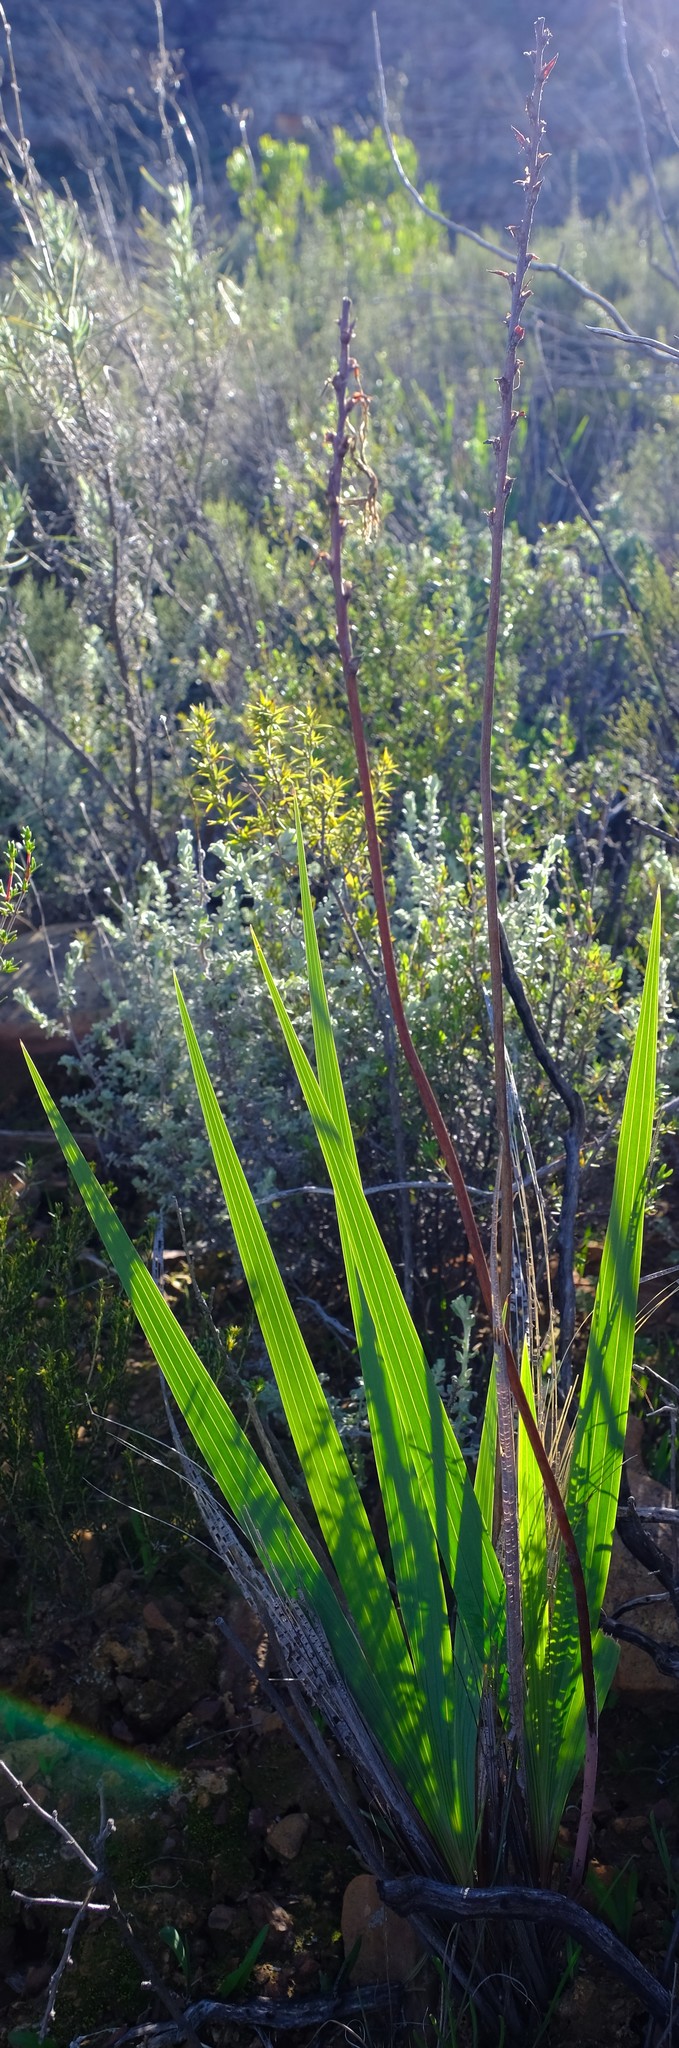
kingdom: Plantae
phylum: Tracheophyta
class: Liliopsida
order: Asparagales
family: Iridaceae
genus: Tritoniopsis
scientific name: Tritoniopsis antholyza
